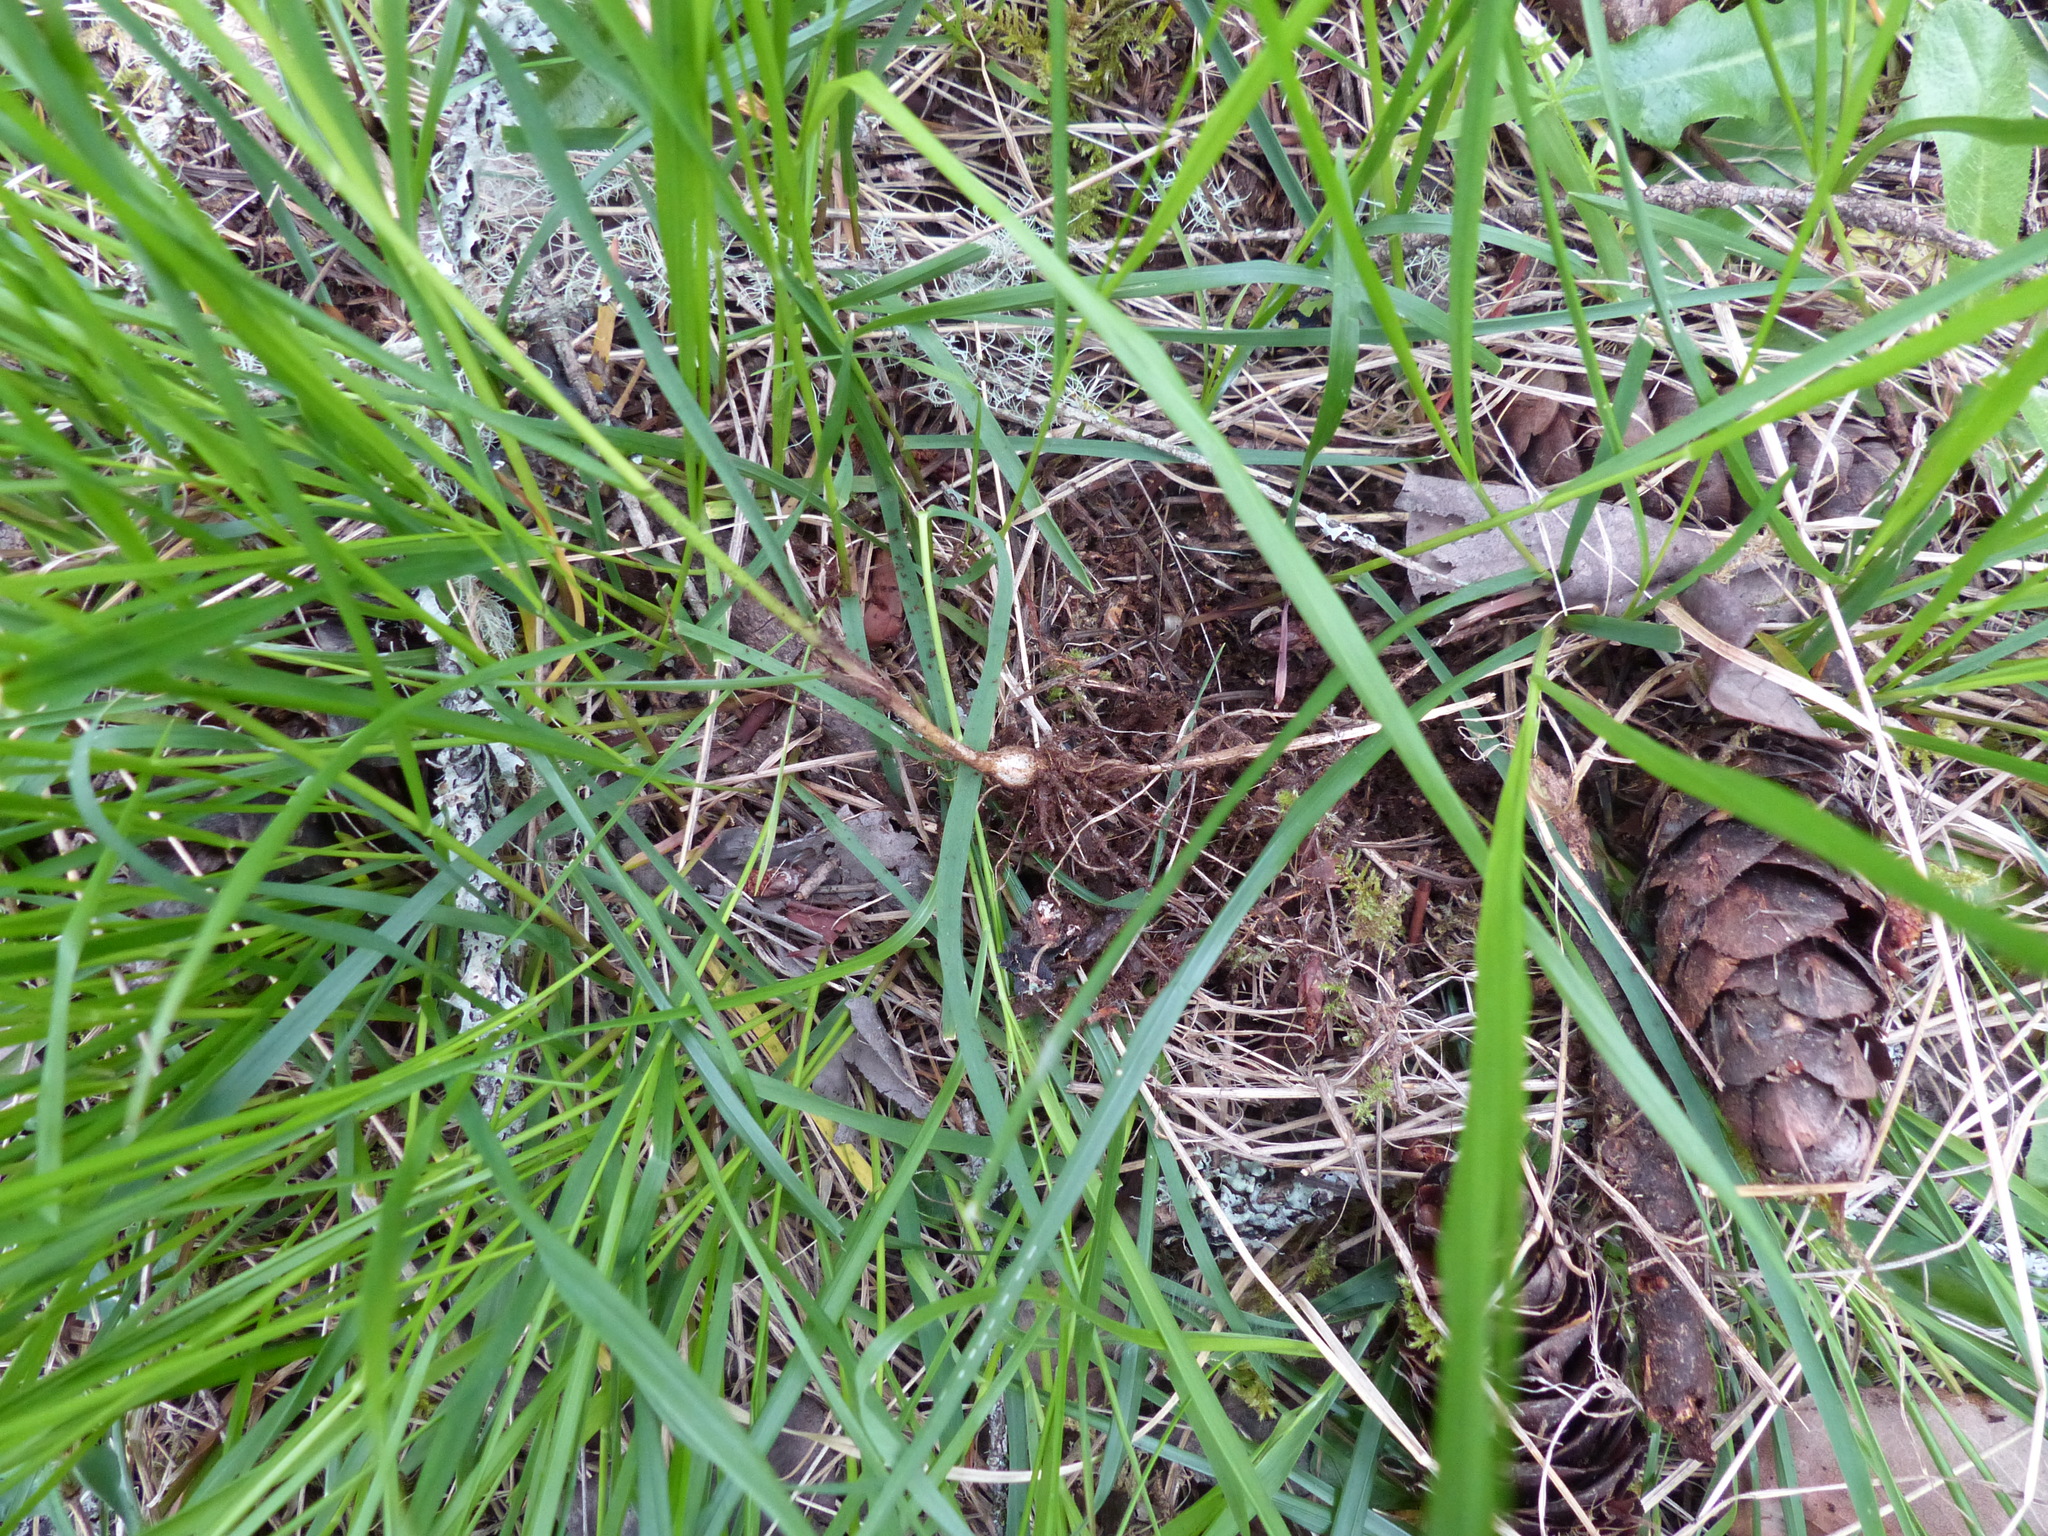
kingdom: Plantae
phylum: Tracheophyta
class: Liliopsida
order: Poales
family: Poaceae
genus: Melica
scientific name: Melica subulata
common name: Tapered oniongrass
